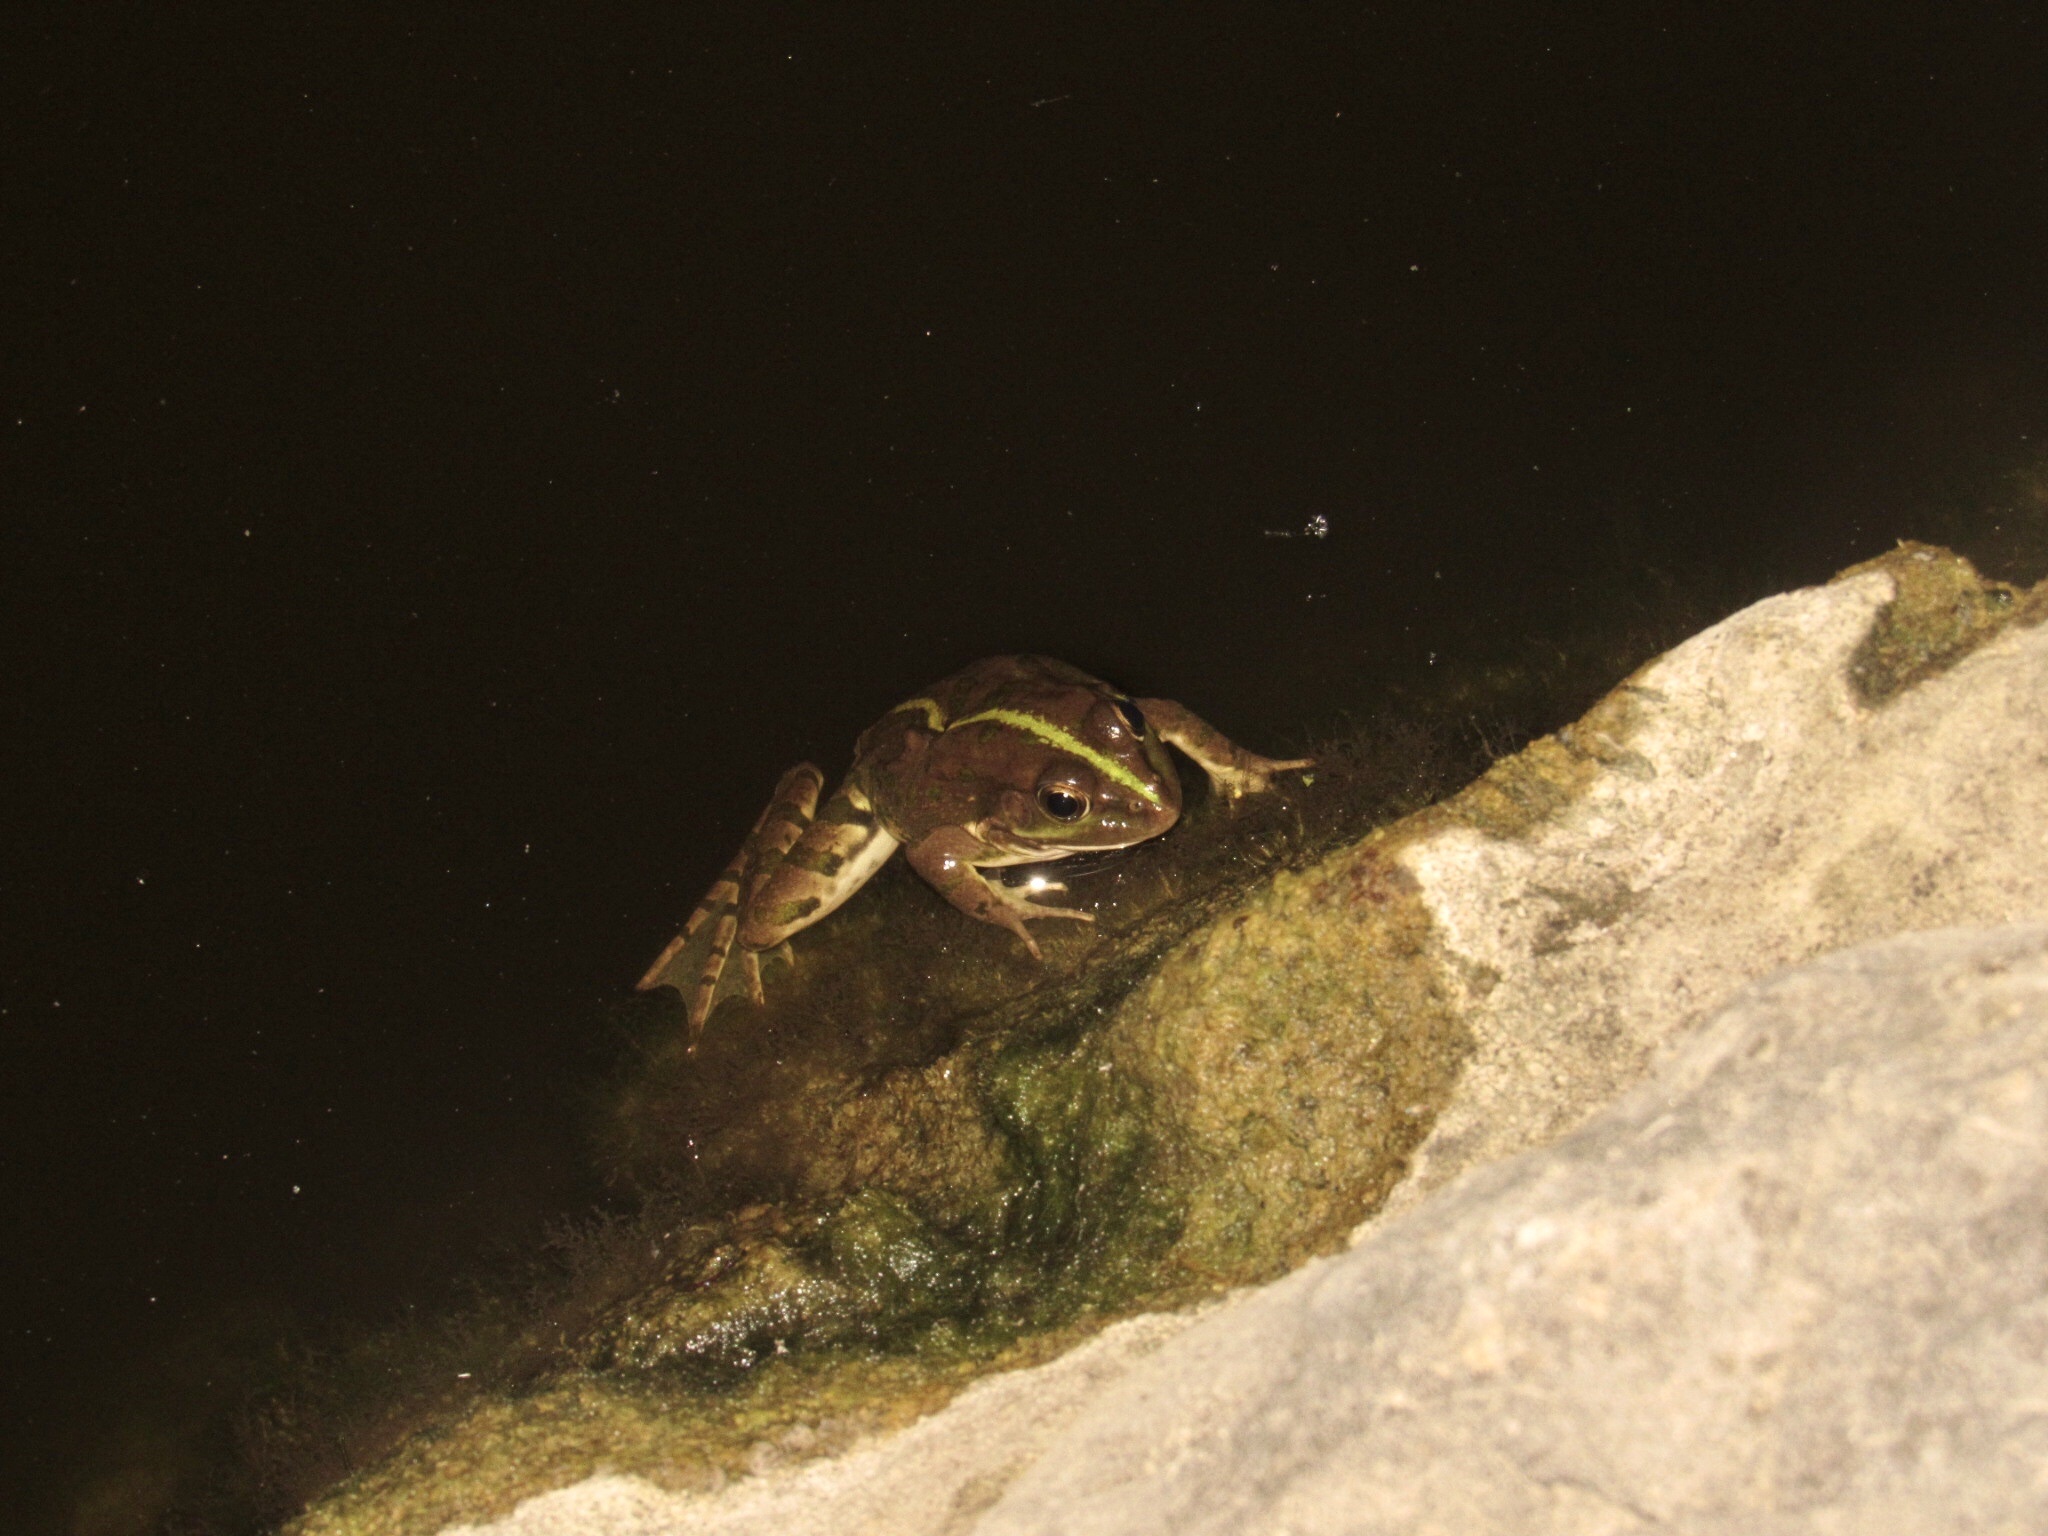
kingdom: Animalia
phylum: Chordata
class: Amphibia
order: Anura
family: Ranidae
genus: Pelophylax
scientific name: Pelophylax ridibundus
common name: Marsh frog
